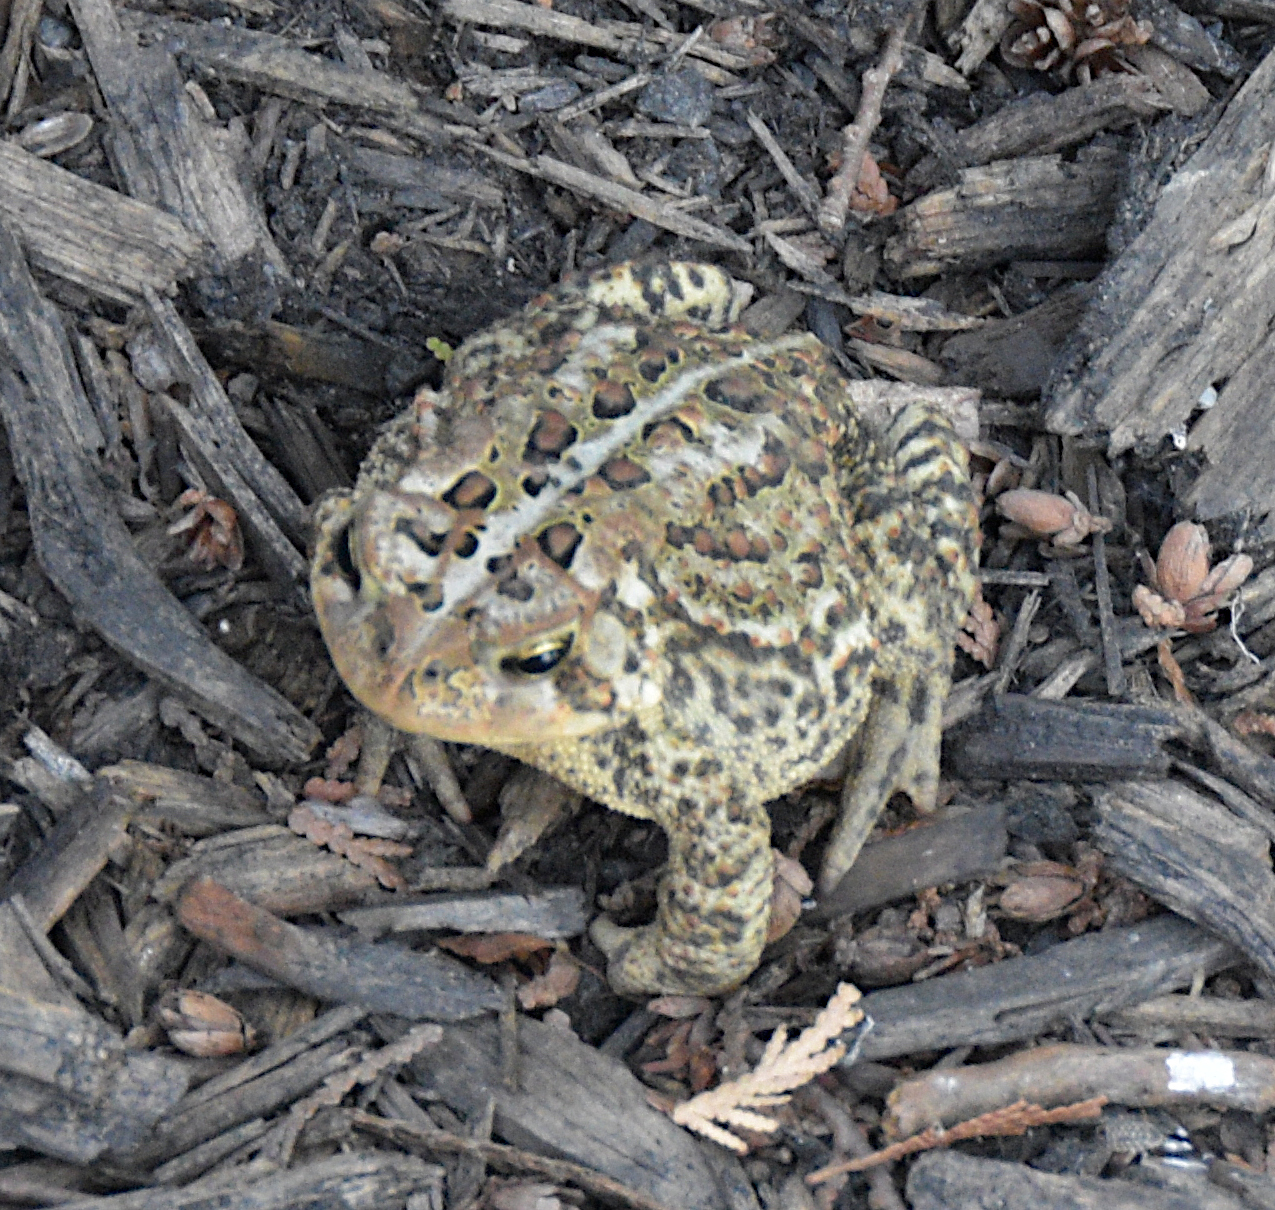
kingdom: Animalia
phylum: Chordata
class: Amphibia
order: Anura
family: Bufonidae
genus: Anaxyrus
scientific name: Anaxyrus americanus
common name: American toad
